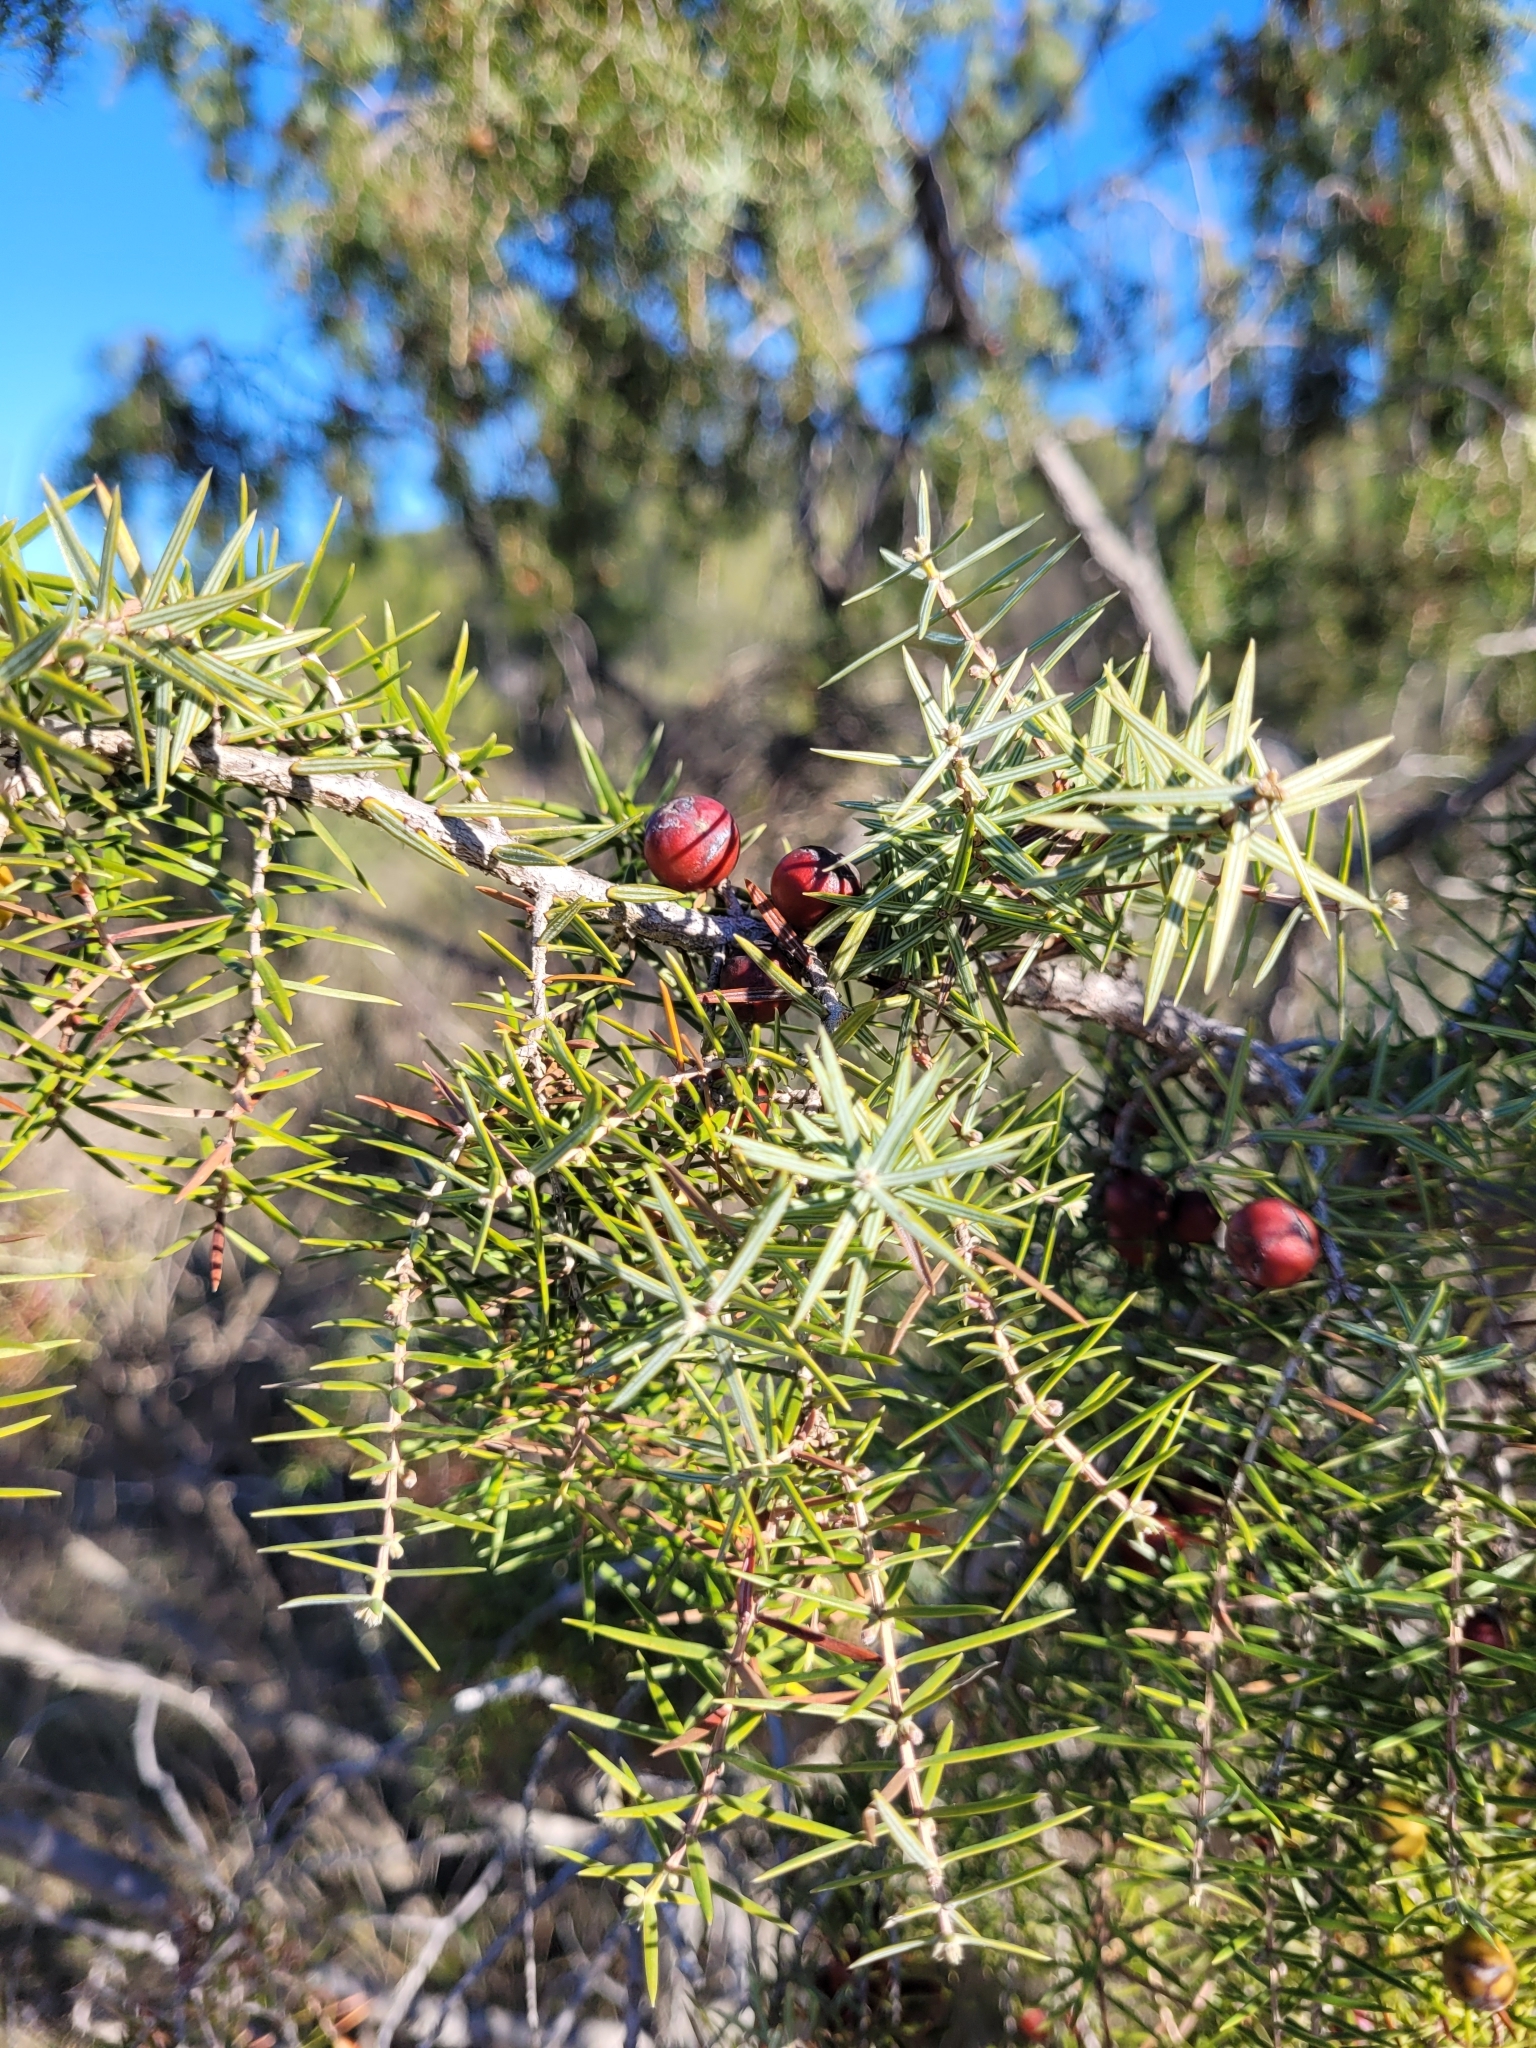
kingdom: Plantae
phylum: Tracheophyta
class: Pinopsida
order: Pinales
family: Cupressaceae
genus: Juniperus
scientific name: Juniperus oxycedrus
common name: Prickly juniper
